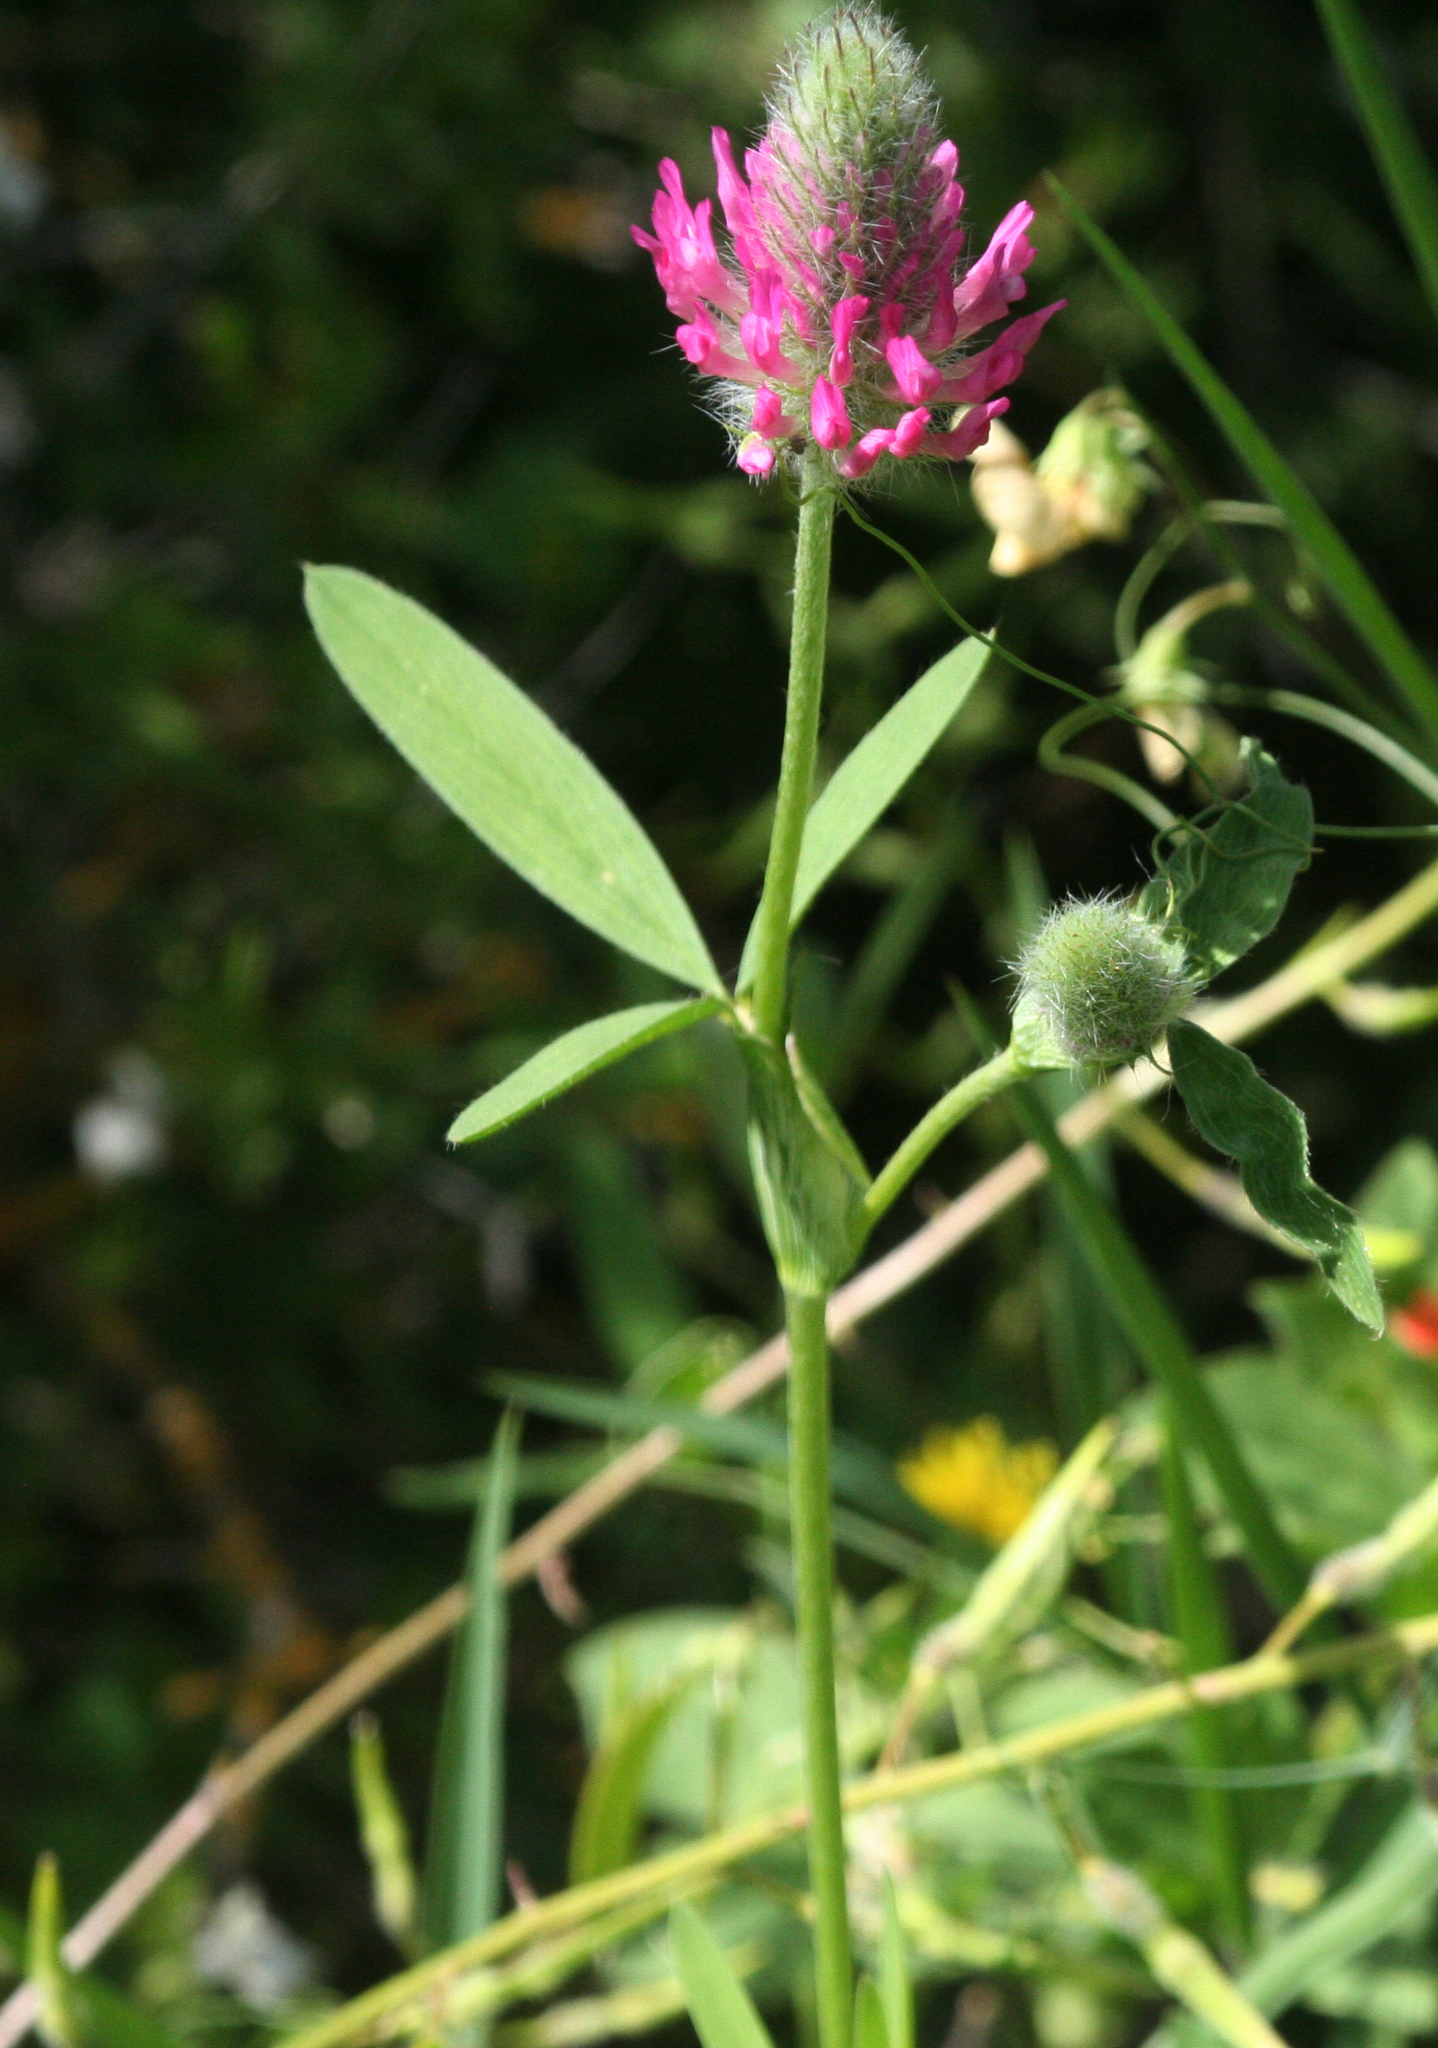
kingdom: Plantae
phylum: Tracheophyta
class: Magnoliopsida
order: Fabales
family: Fabaceae
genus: Trifolium
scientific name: Trifolium purpureum
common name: Purple clover
